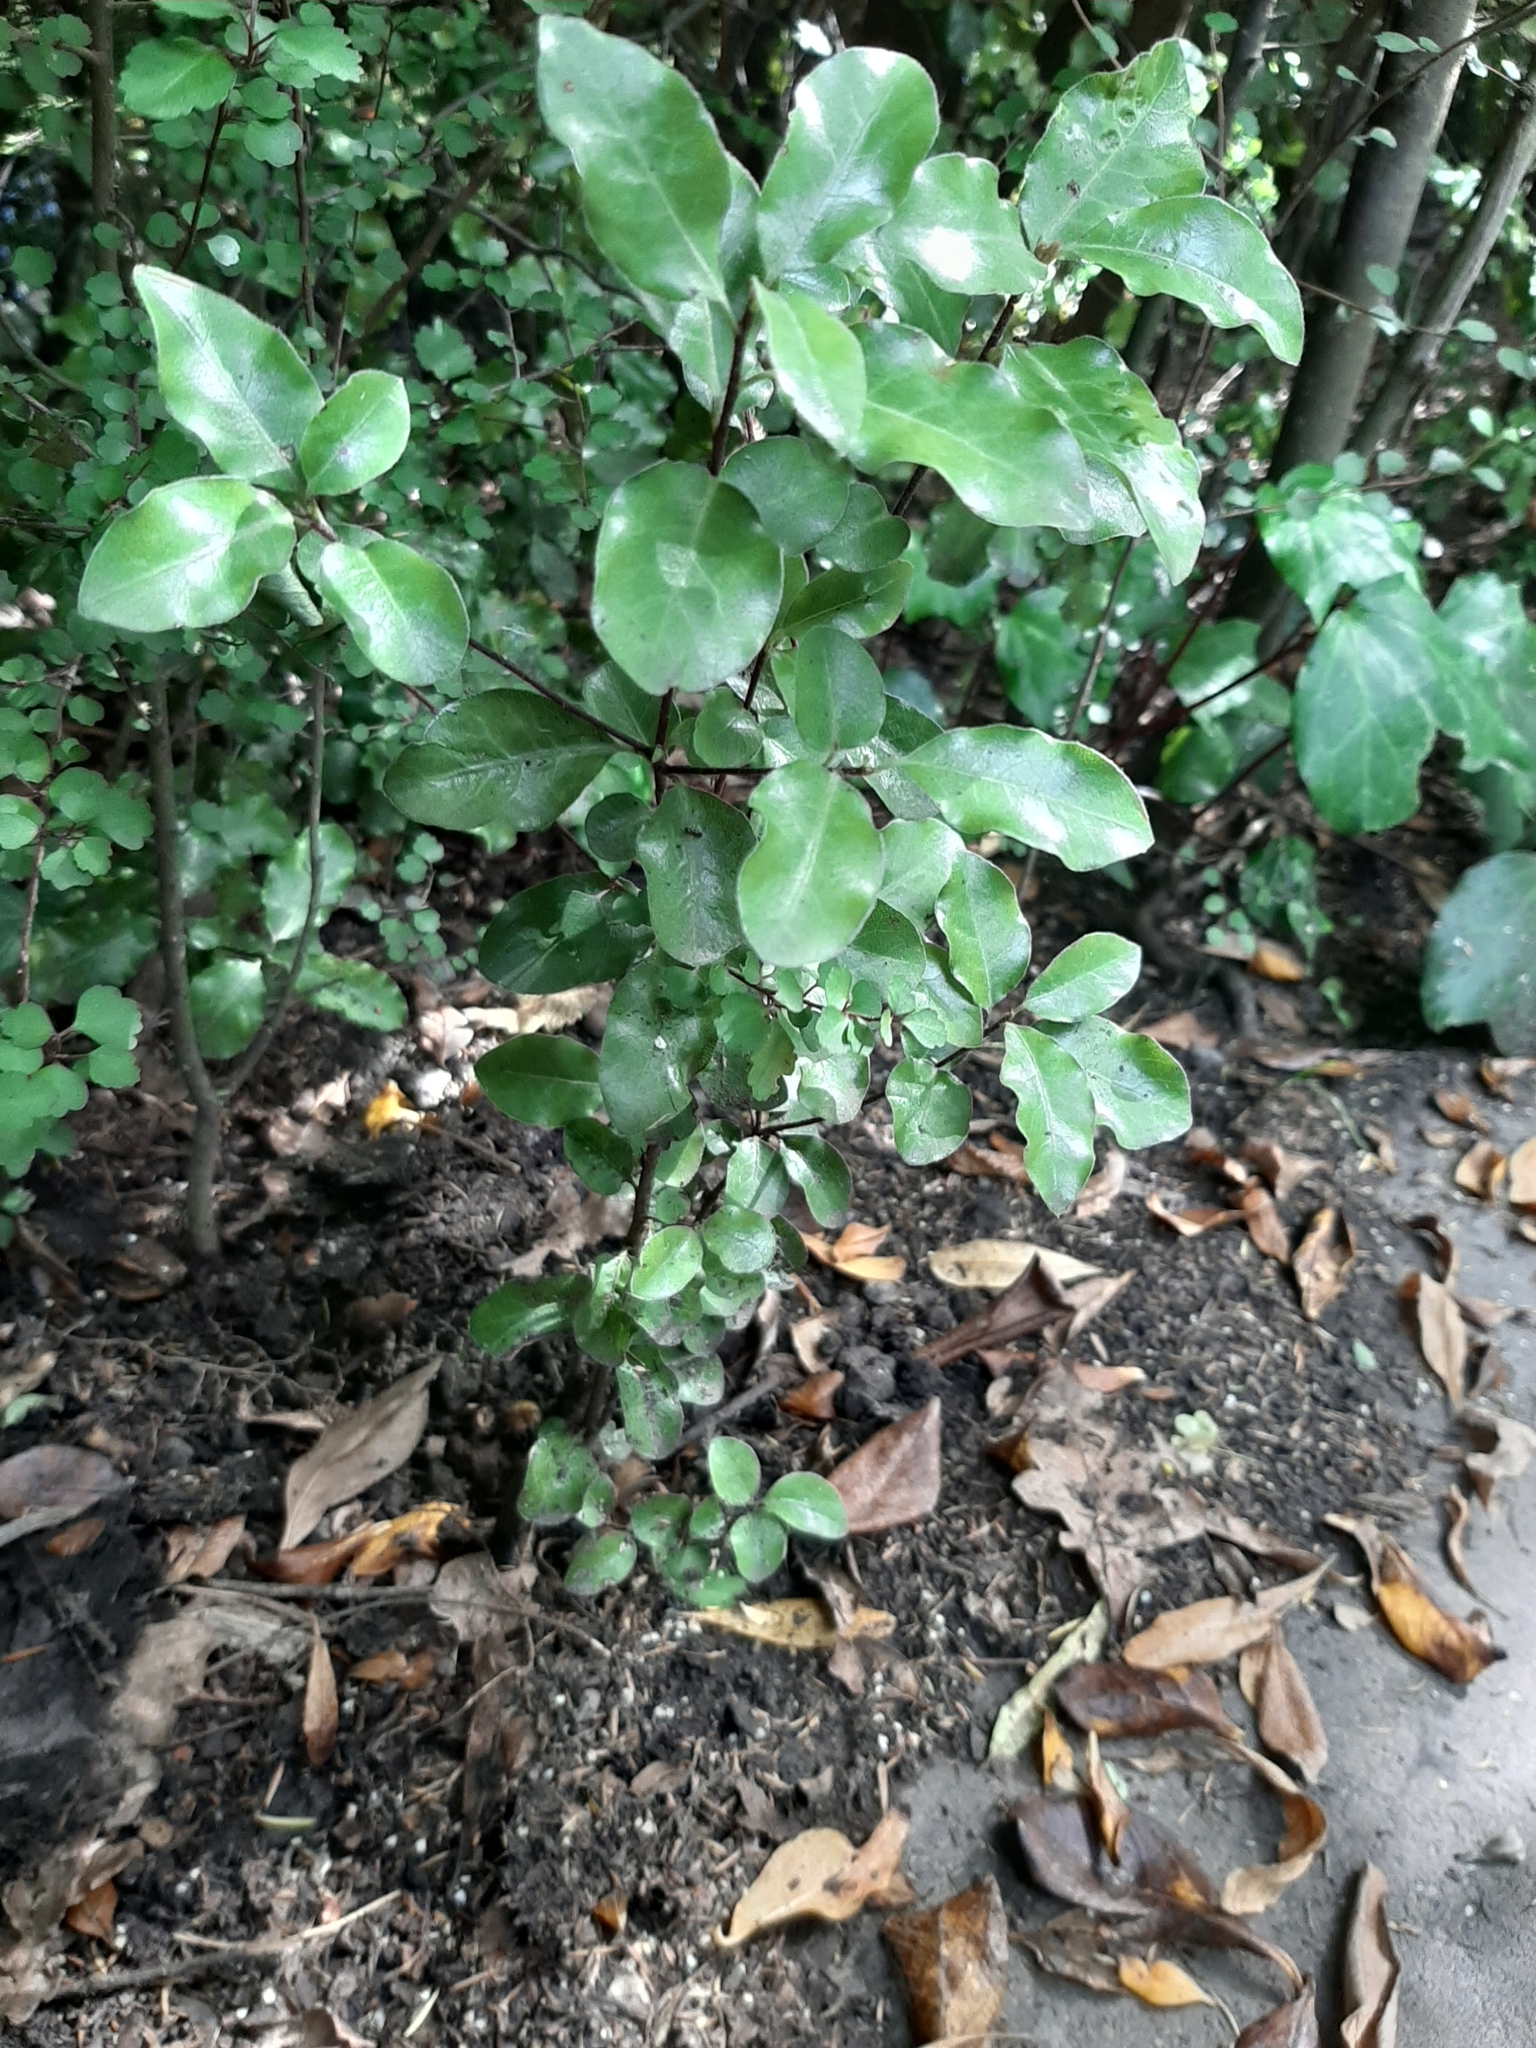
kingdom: Plantae
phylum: Tracheophyta
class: Magnoliopsida
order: Apiales
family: Pittosporaceae
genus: Pittosporum
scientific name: Pittosporum tenuifolium
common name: Kohuhu
